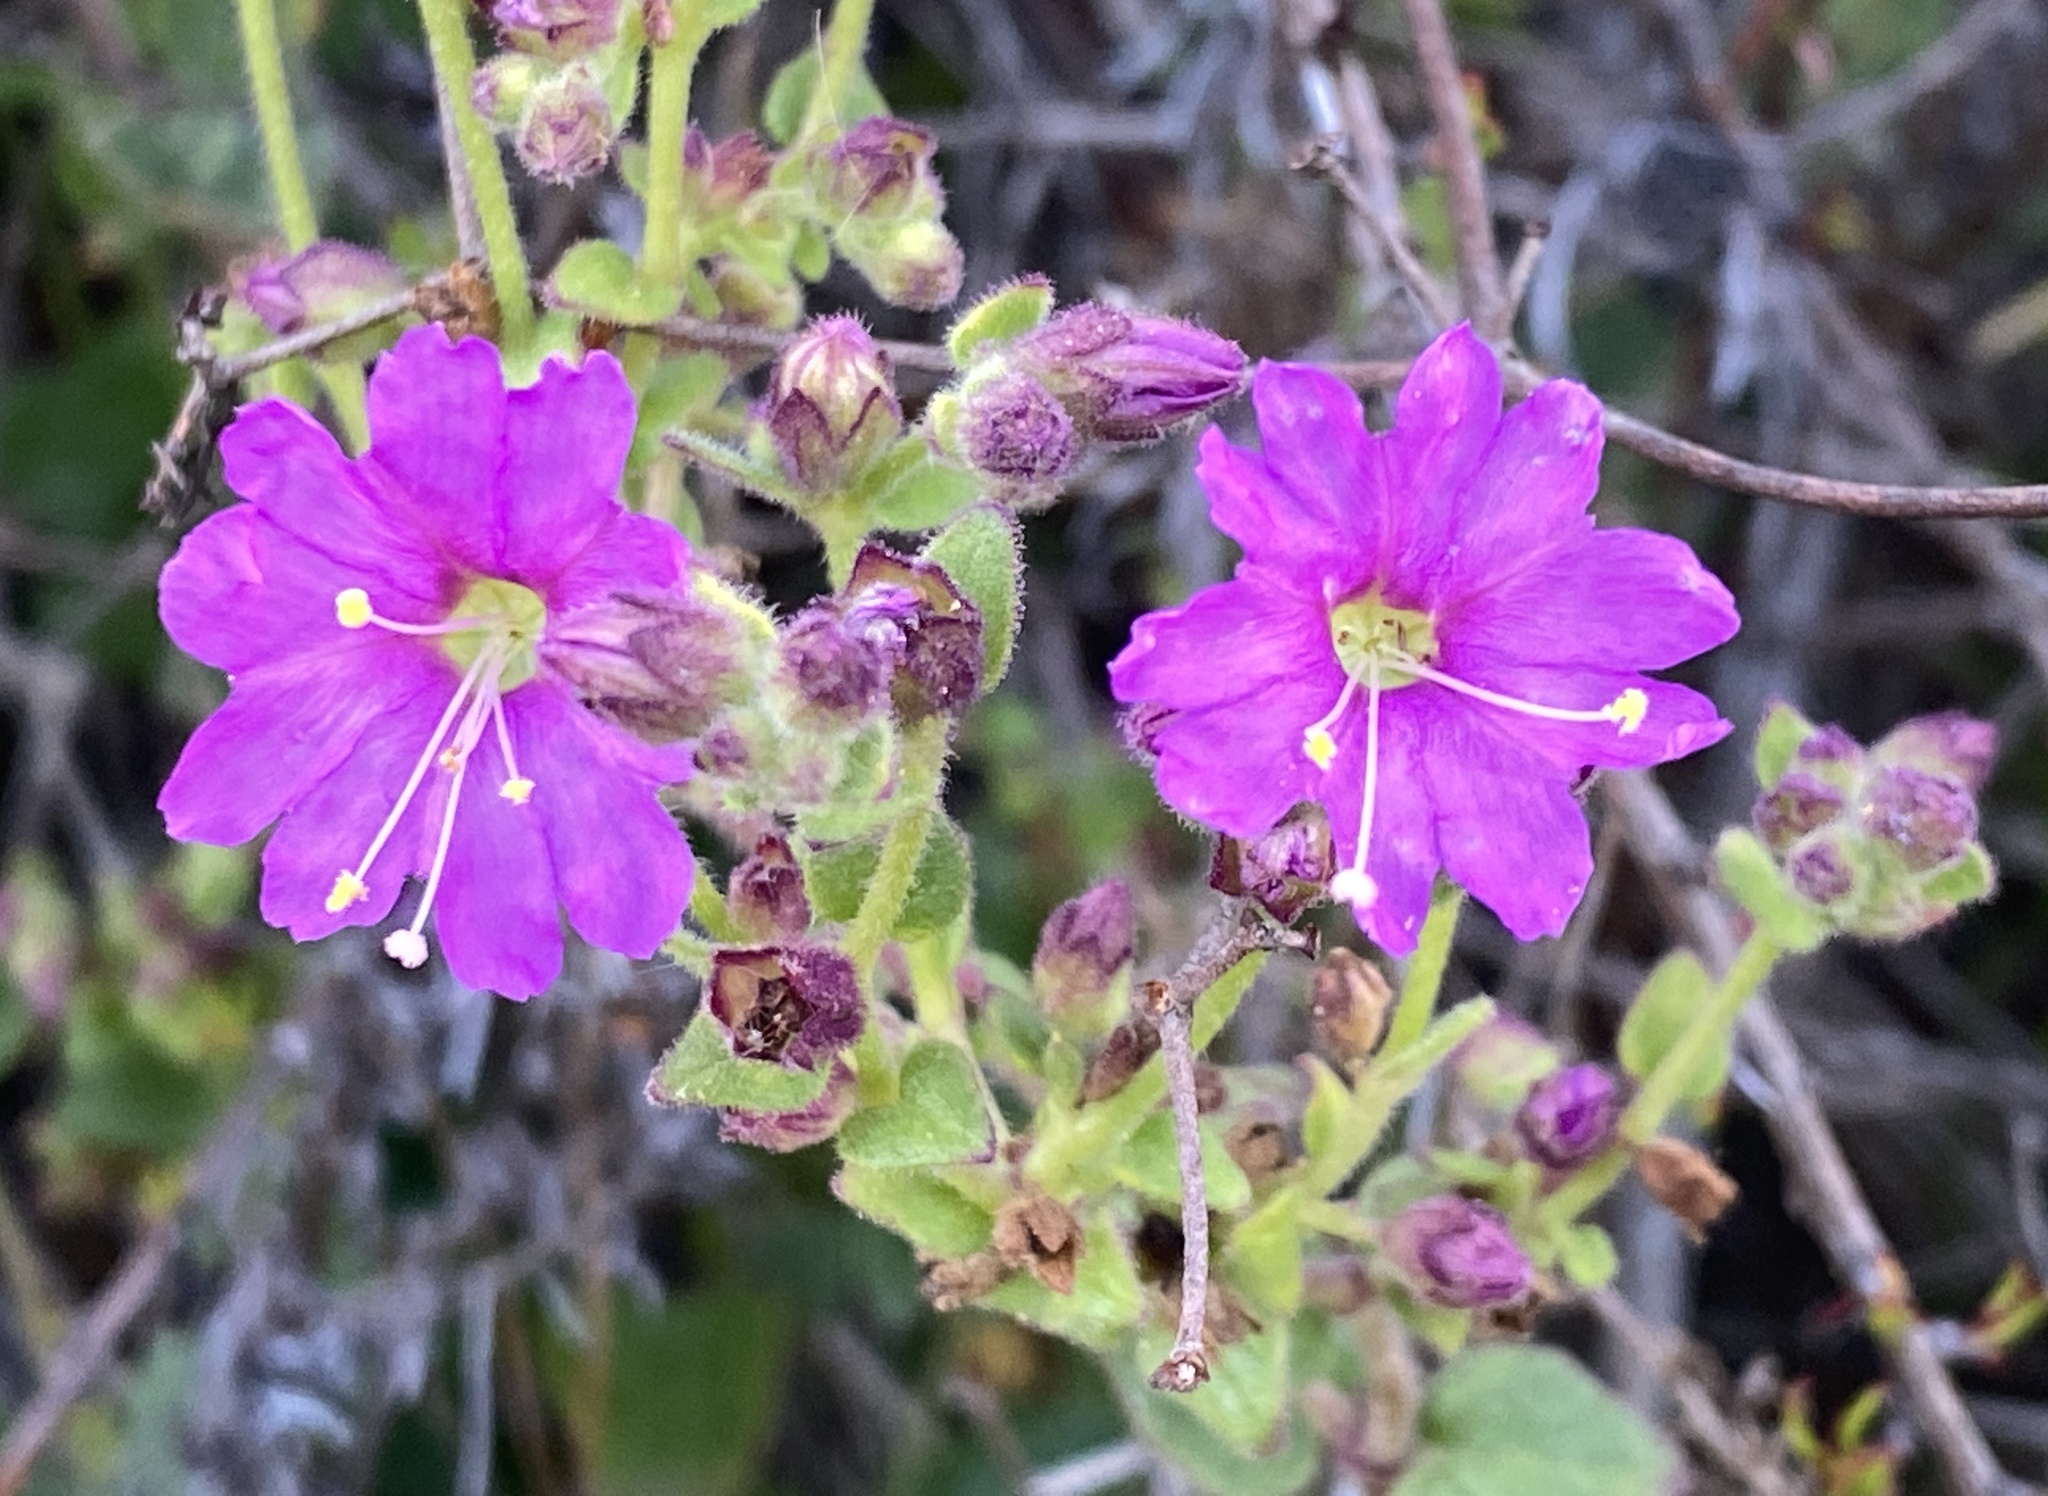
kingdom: Plantae
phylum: Tracheophyta
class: Magnoliopsida
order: Caryophyllales
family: Nyctaginaceae
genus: Mirabilis
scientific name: Mirabilis laevis
